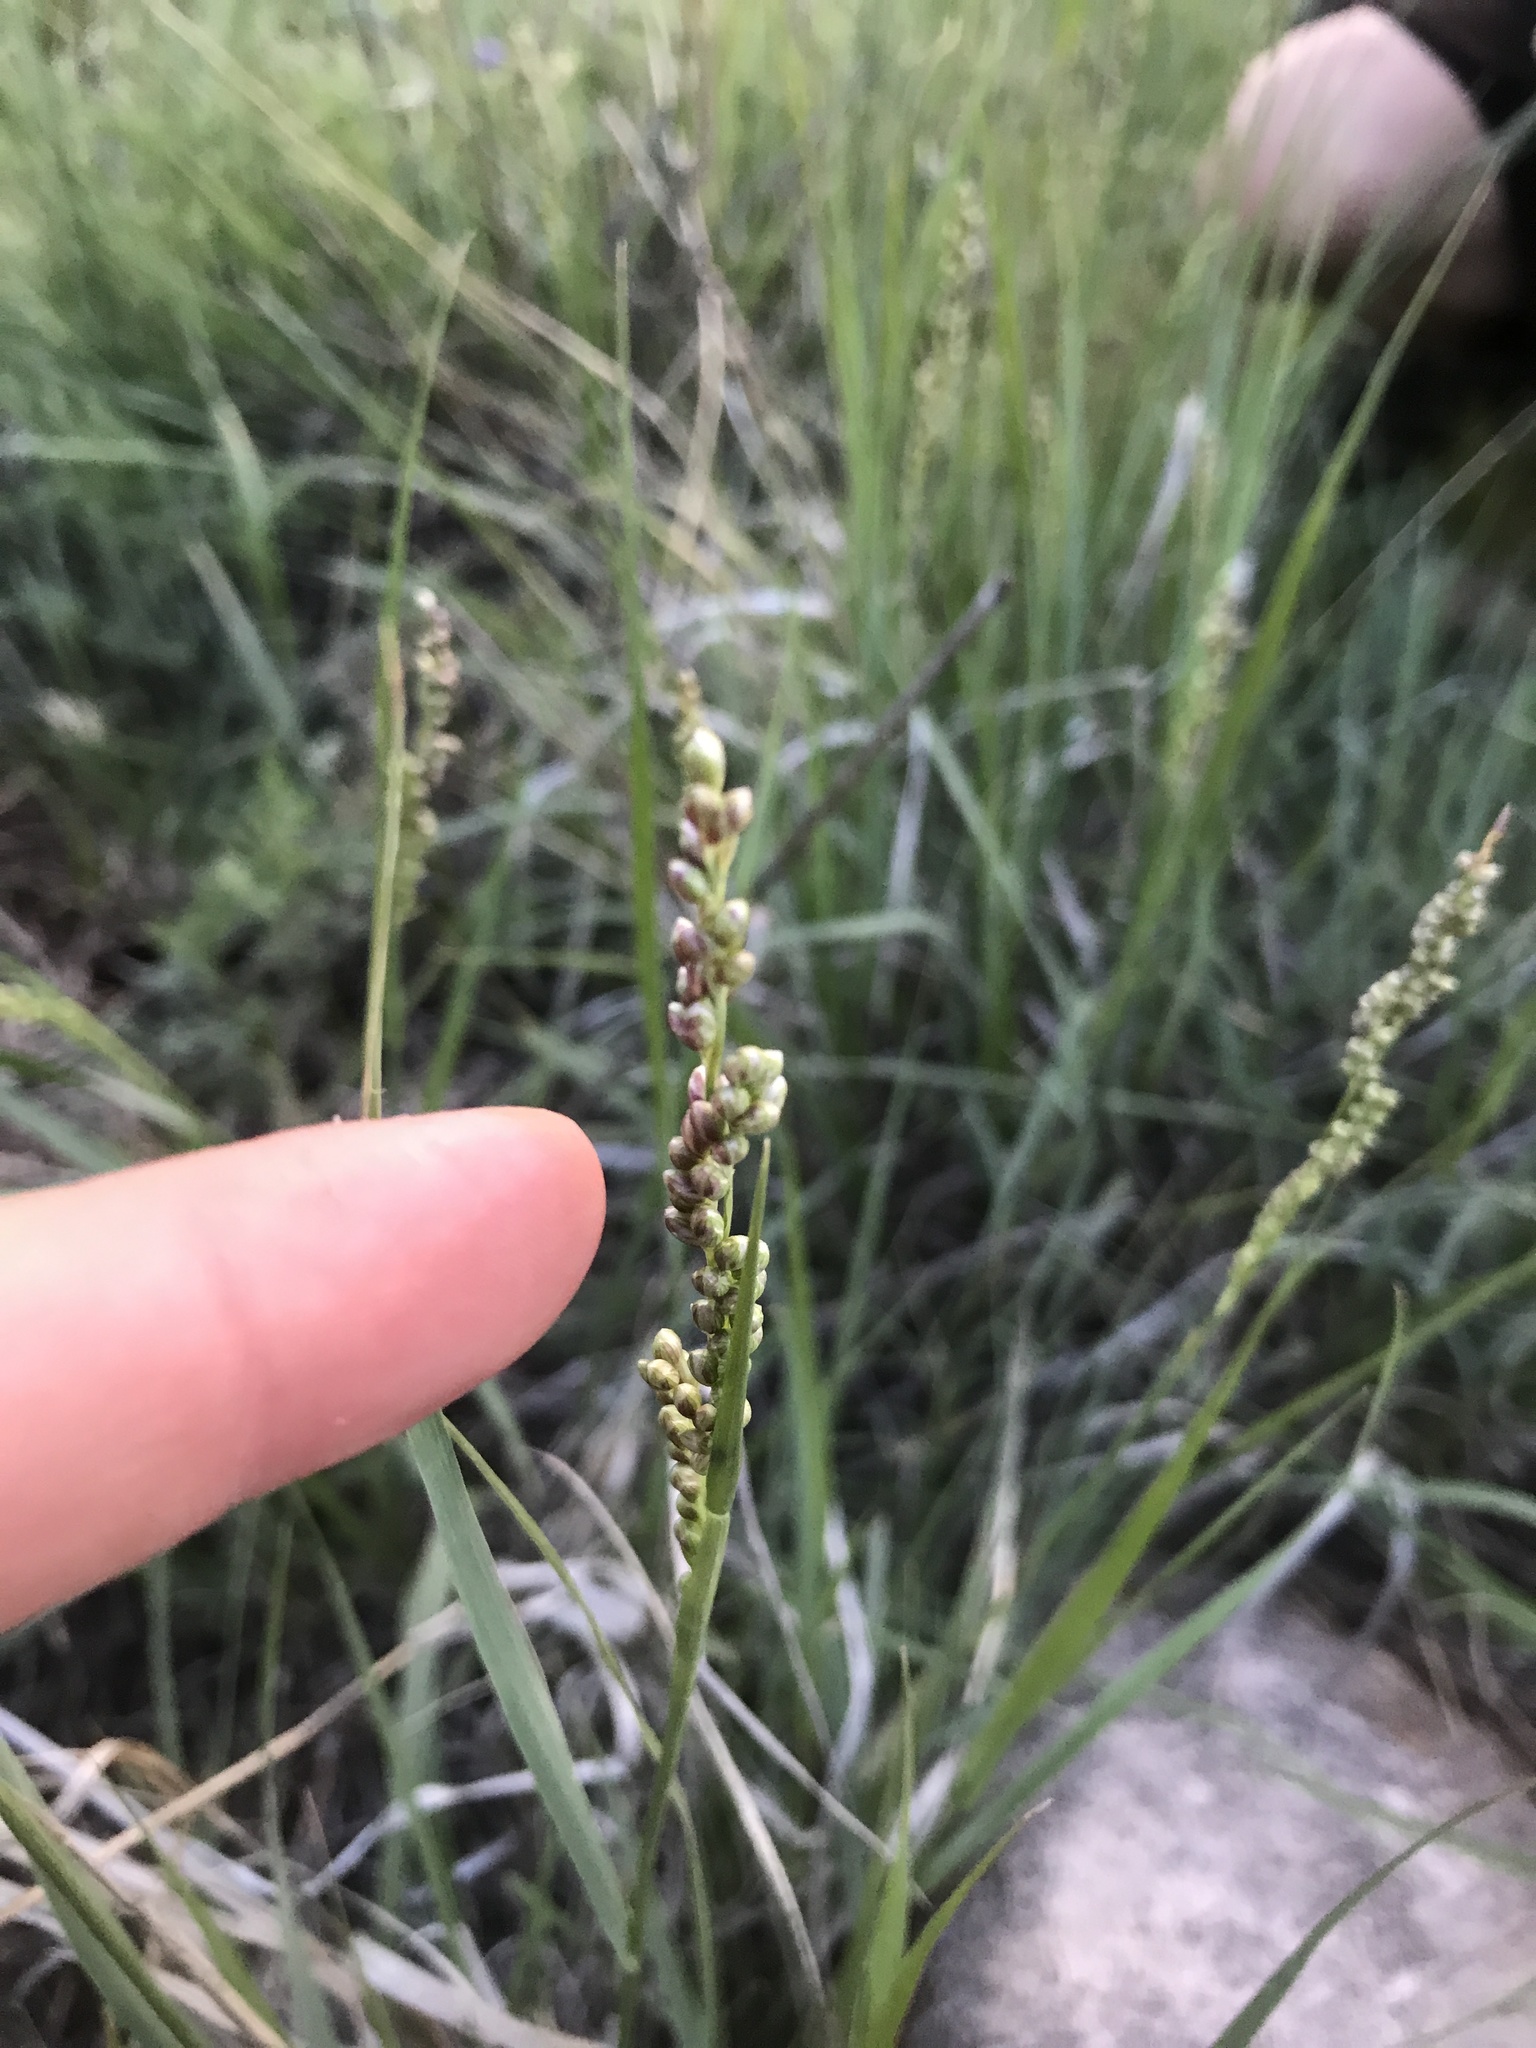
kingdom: Plantae
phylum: Tracheophyta
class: Liliopsida
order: Poales
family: Poaceae
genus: Hopia
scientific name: Hopia obtusa
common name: Vine-mesquite
